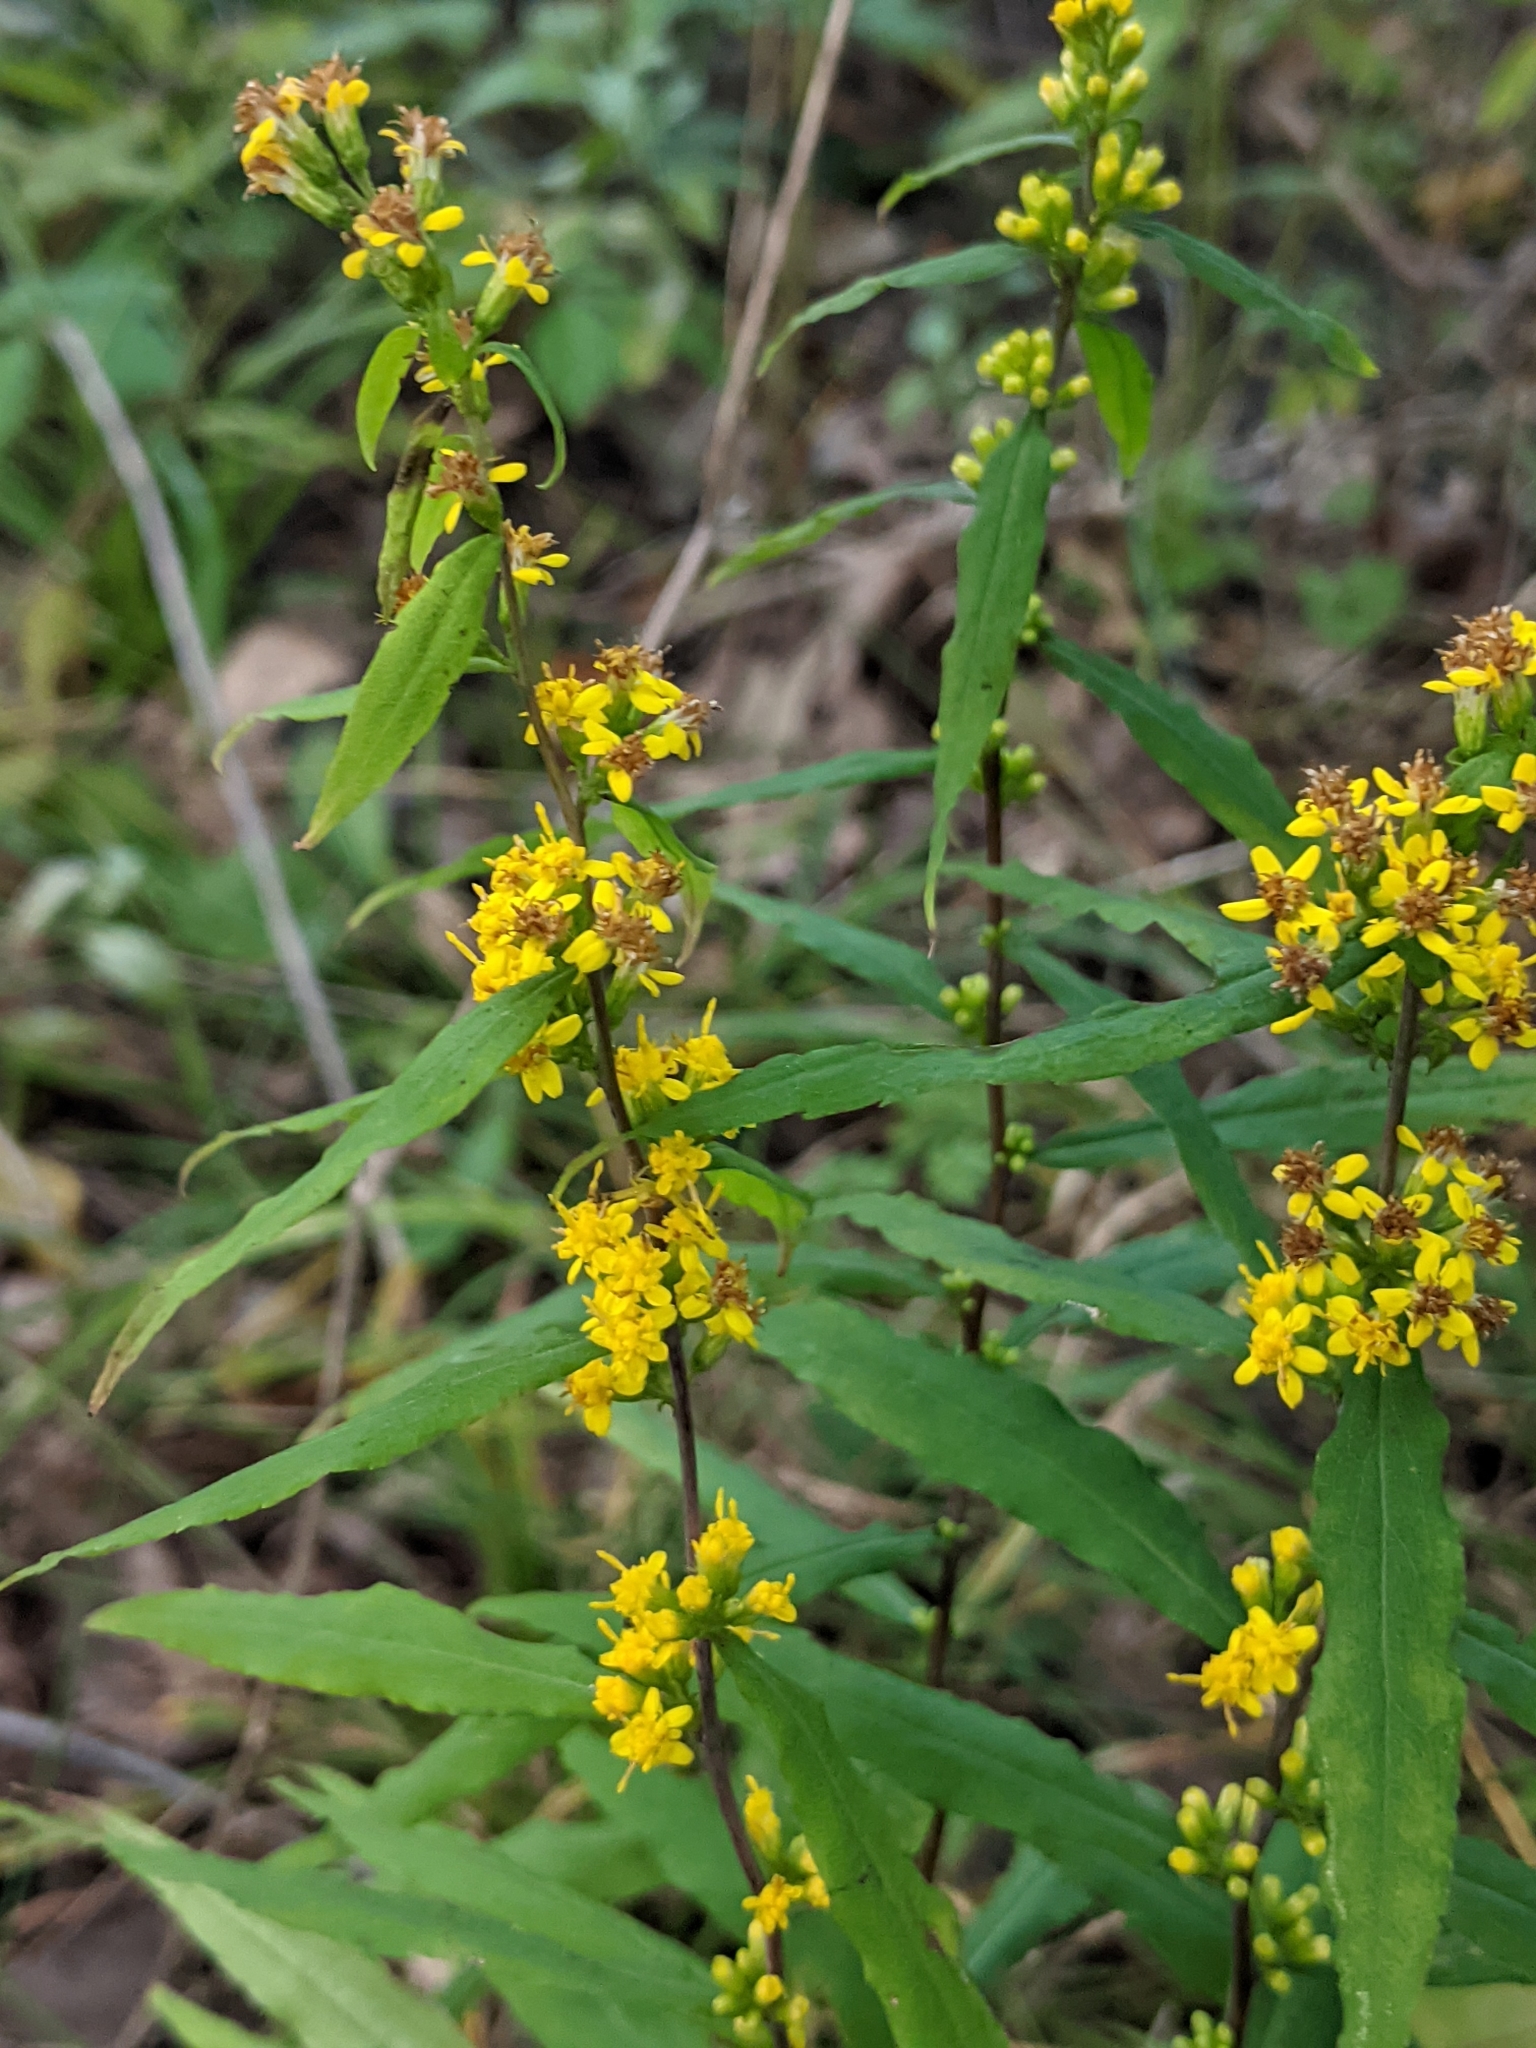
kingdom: Plantae
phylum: Tracheophyta
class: Magnoliopsida
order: Asterales
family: Asteraceae
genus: Solidago
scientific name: Solidago caesia
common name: Woodland goldenrod
